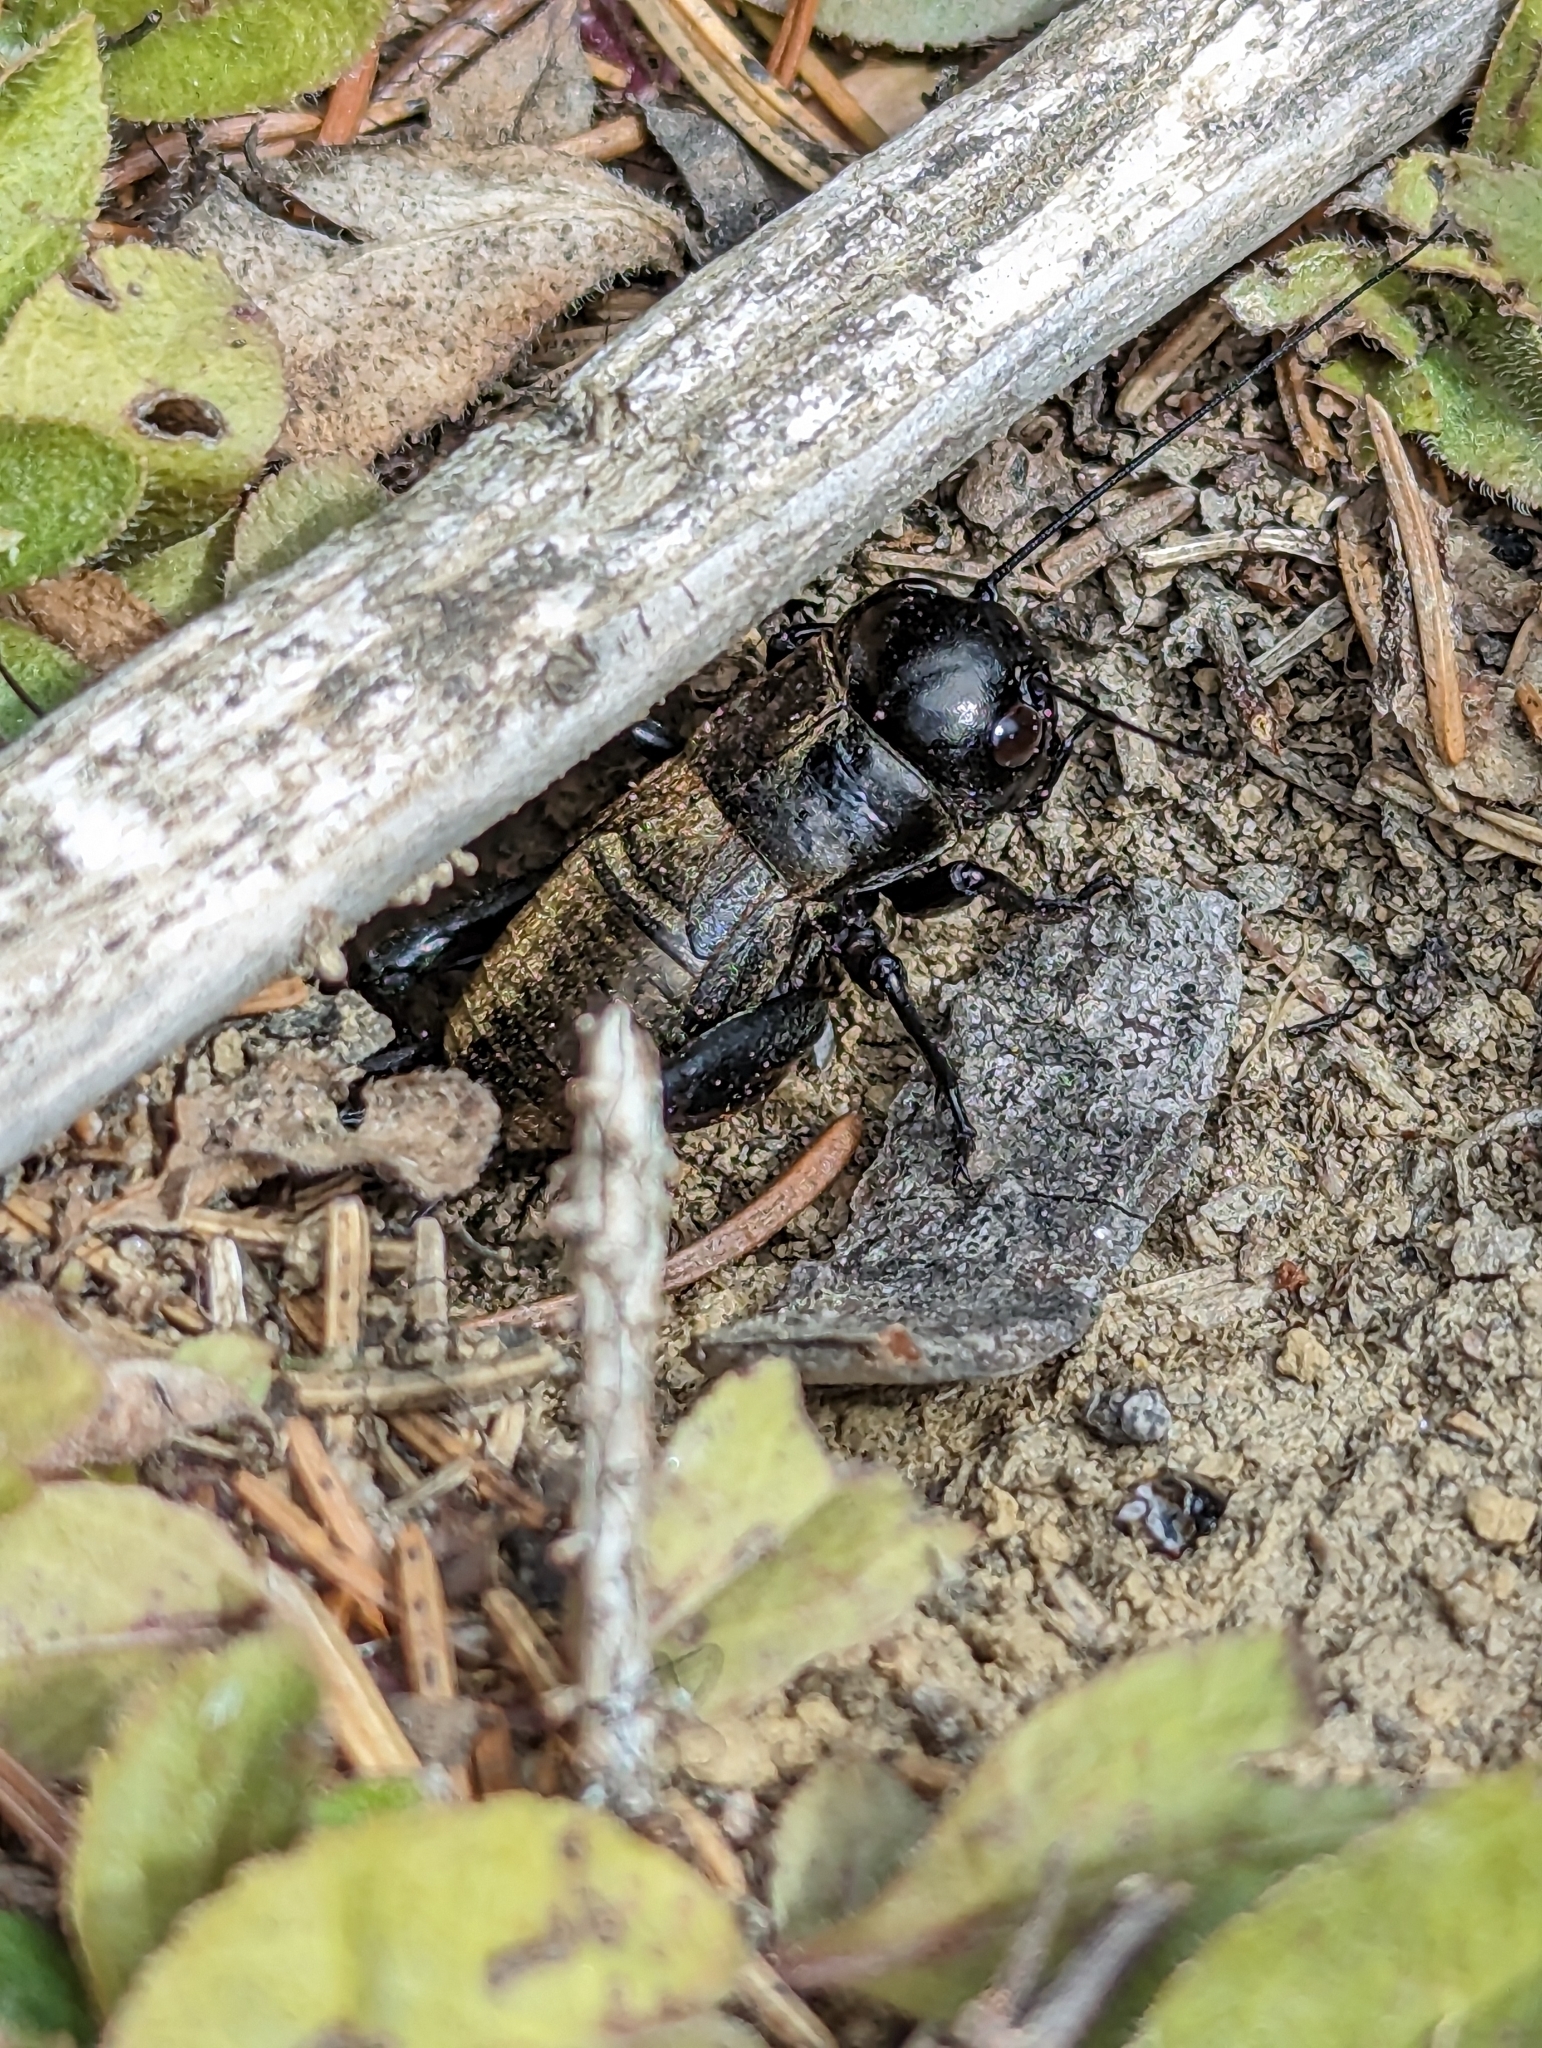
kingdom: Animalia
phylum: Arthropoda
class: Insecta
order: Orthoptera
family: Gryllidae
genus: Gryllus
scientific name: Gryllus campestris
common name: Field cricket
